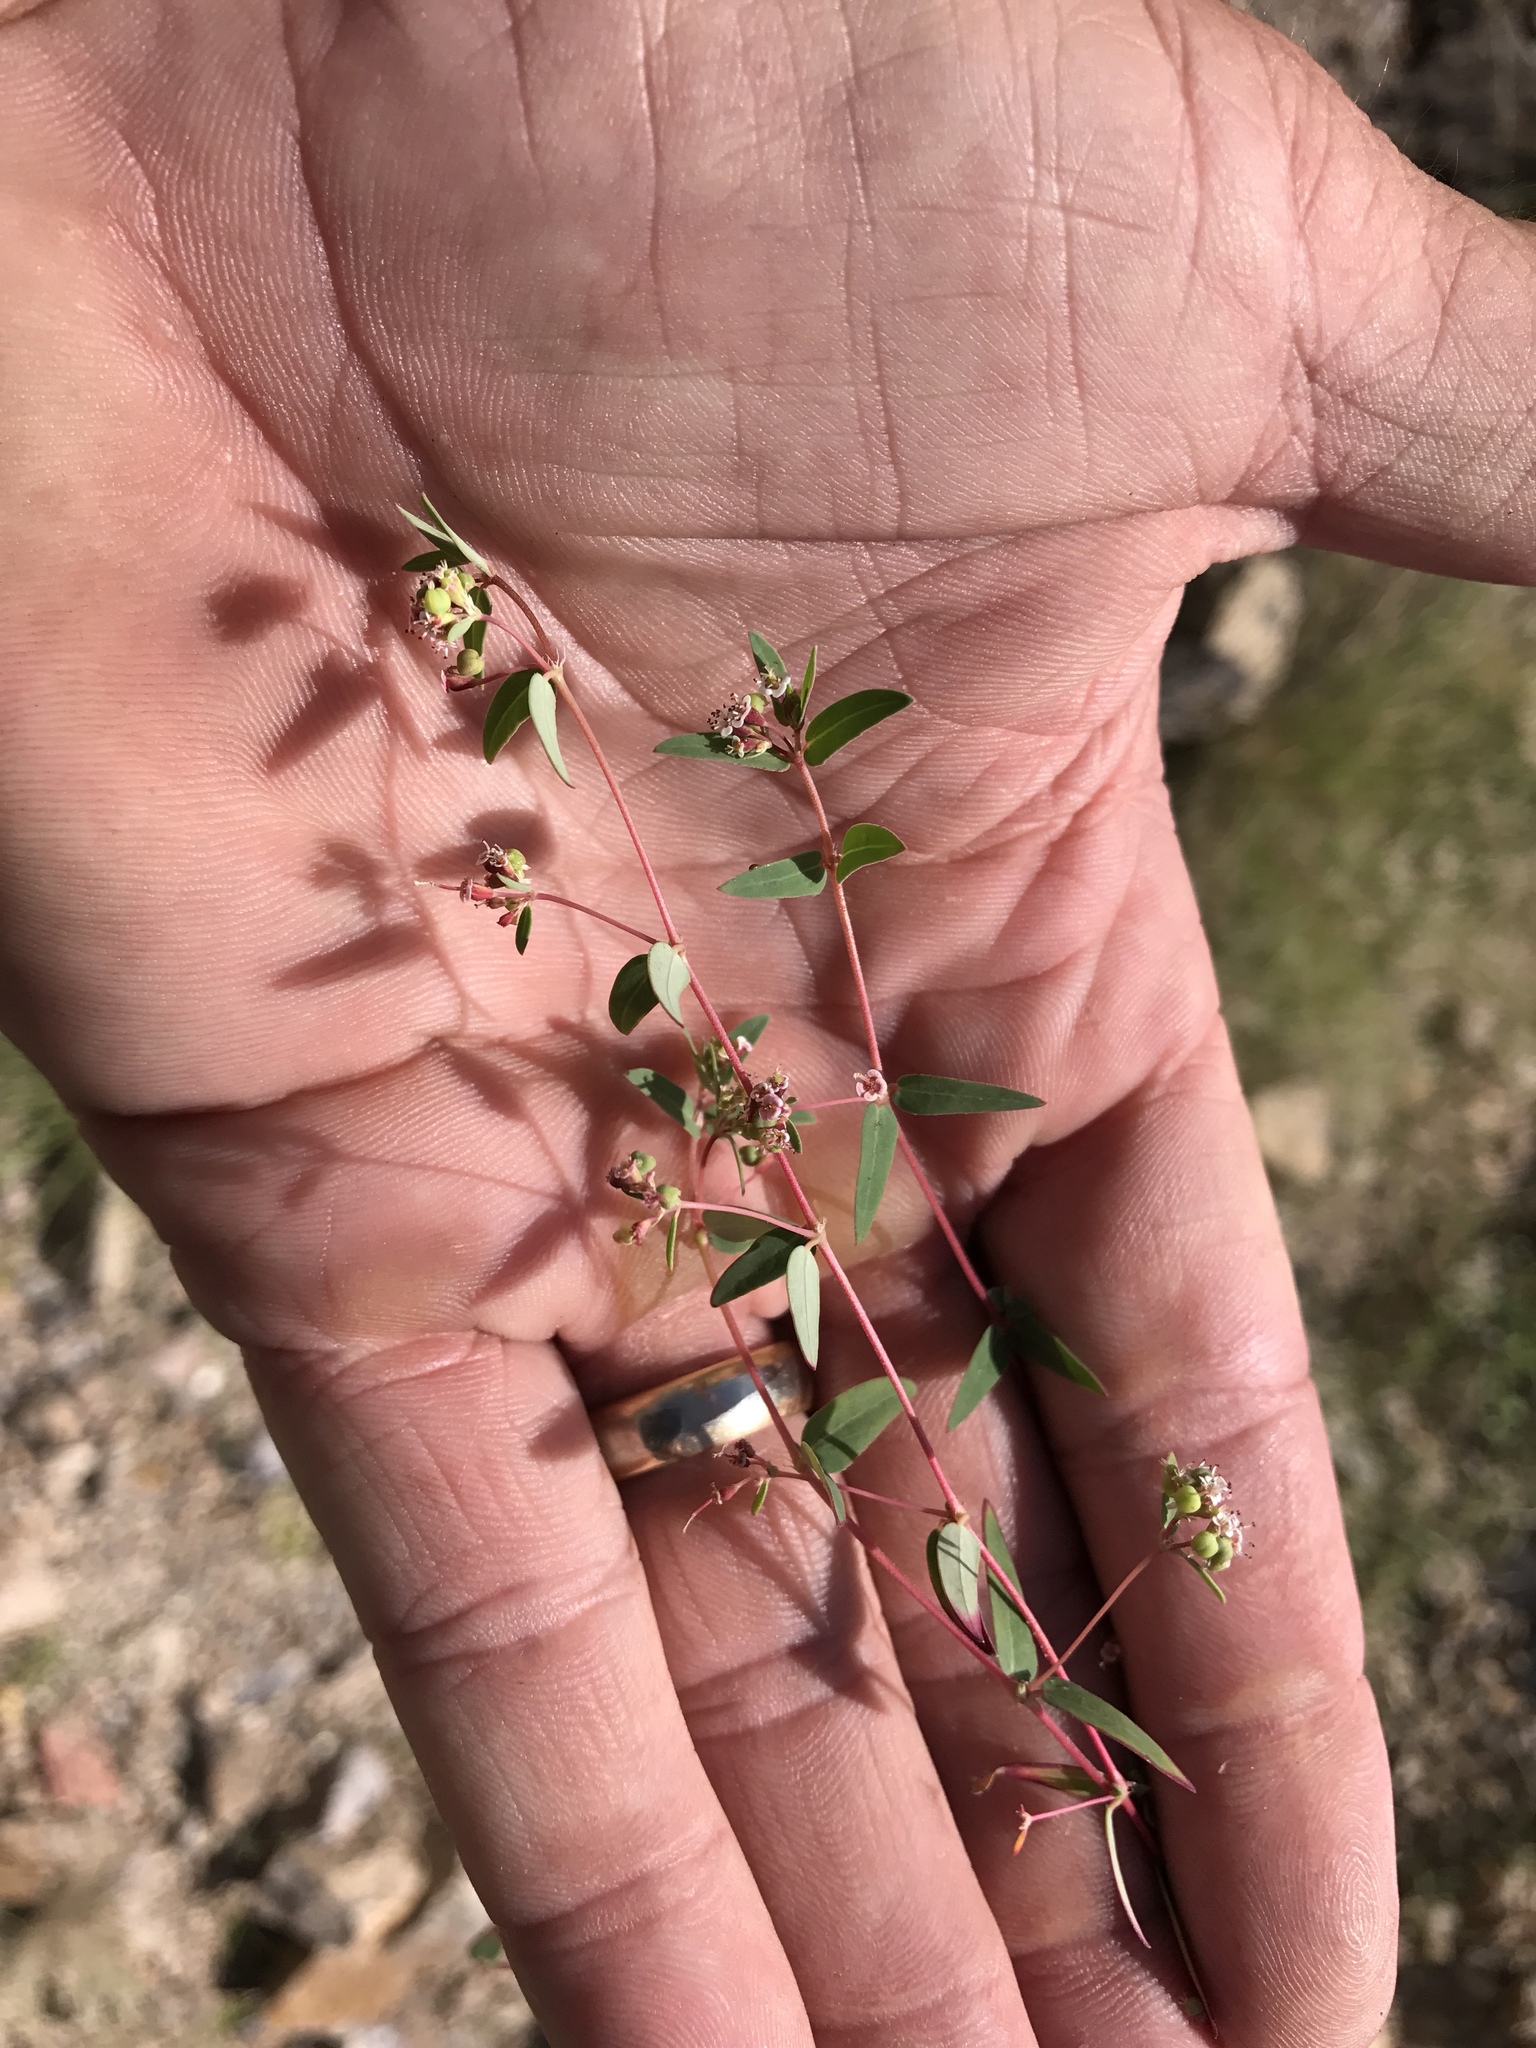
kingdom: Plantae
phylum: Tracheophyta
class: Magnoliopsida
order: Malpighiales
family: Euphorbiaceae
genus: Euphorbia
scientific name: Euphorbia capitellata
